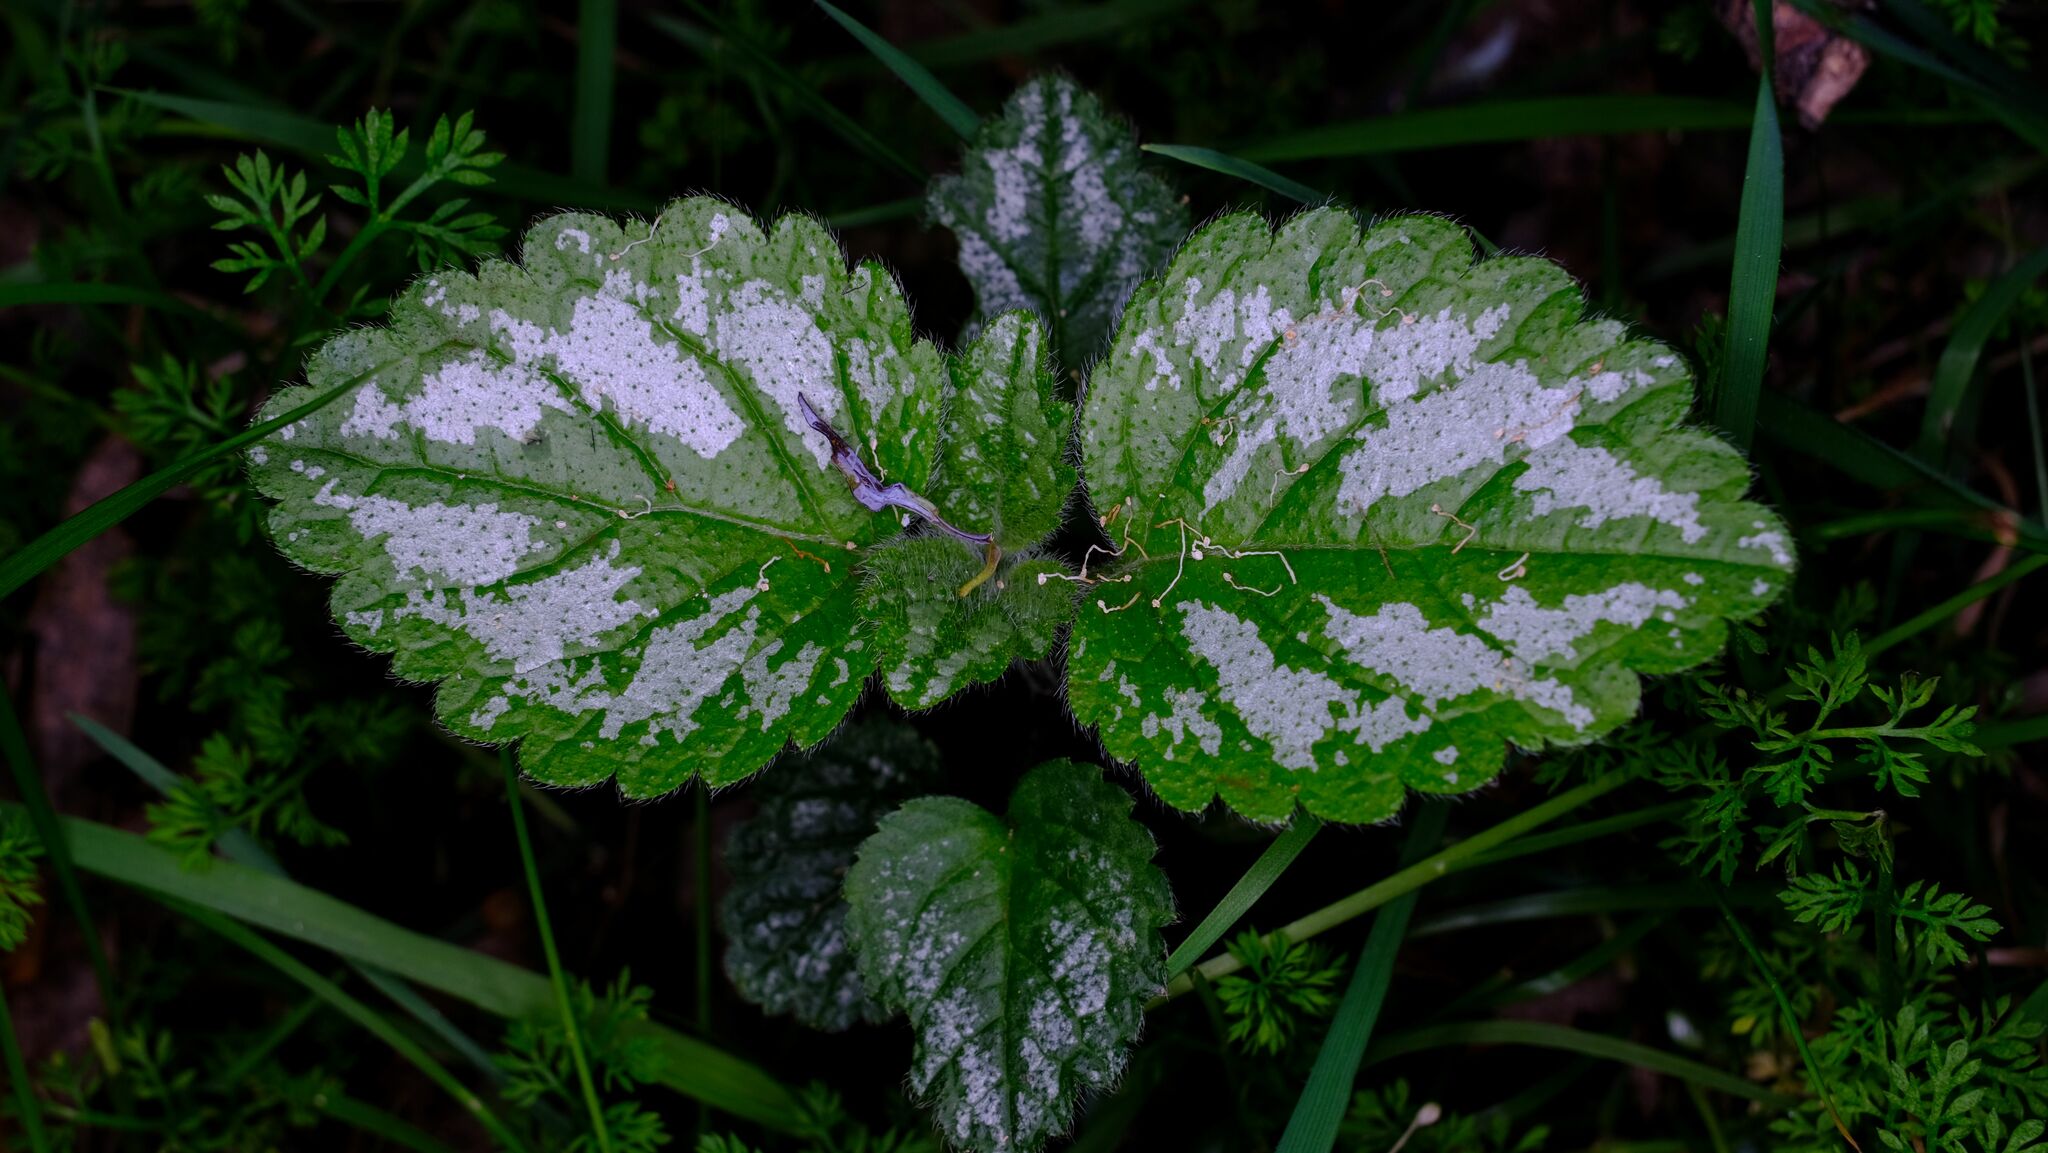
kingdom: Plantae
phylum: Tracheophyta
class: Magnoliopsida
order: Lamiales
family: Lamiaceae
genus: Lamium
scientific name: Lamium galeobdolon
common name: Yellow archangel
